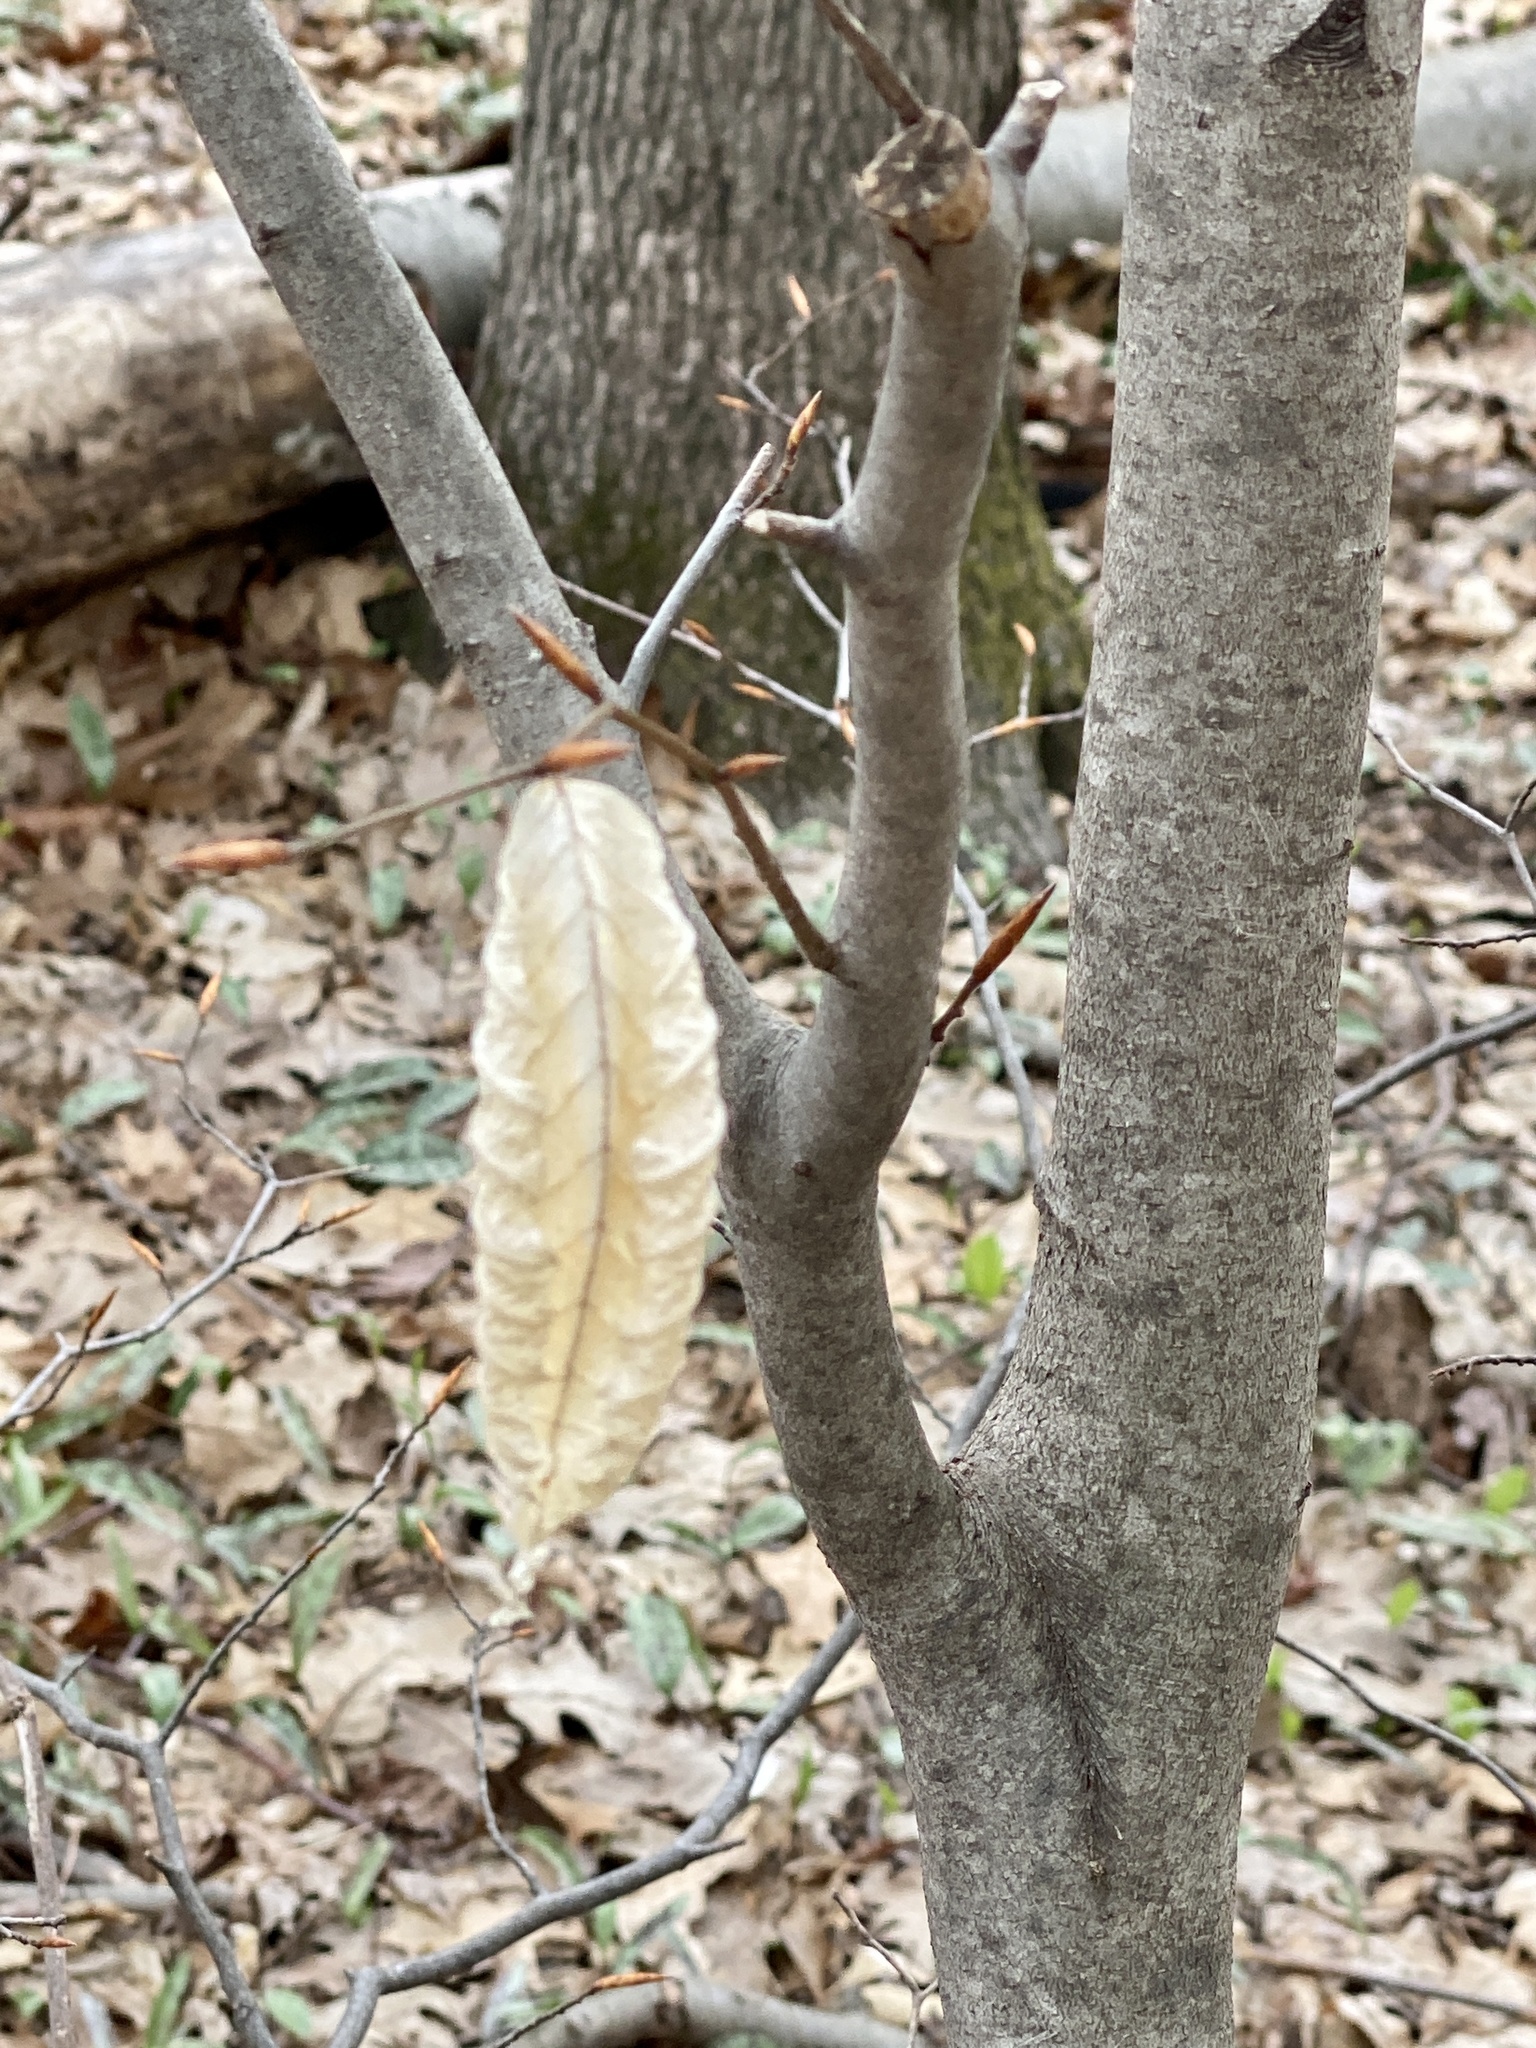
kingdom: Plantae
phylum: Tracheophyta
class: Magnoliopsida
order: Fagales
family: Fagaceae
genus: Fagus
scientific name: Fagus grandifolia
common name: American beech
